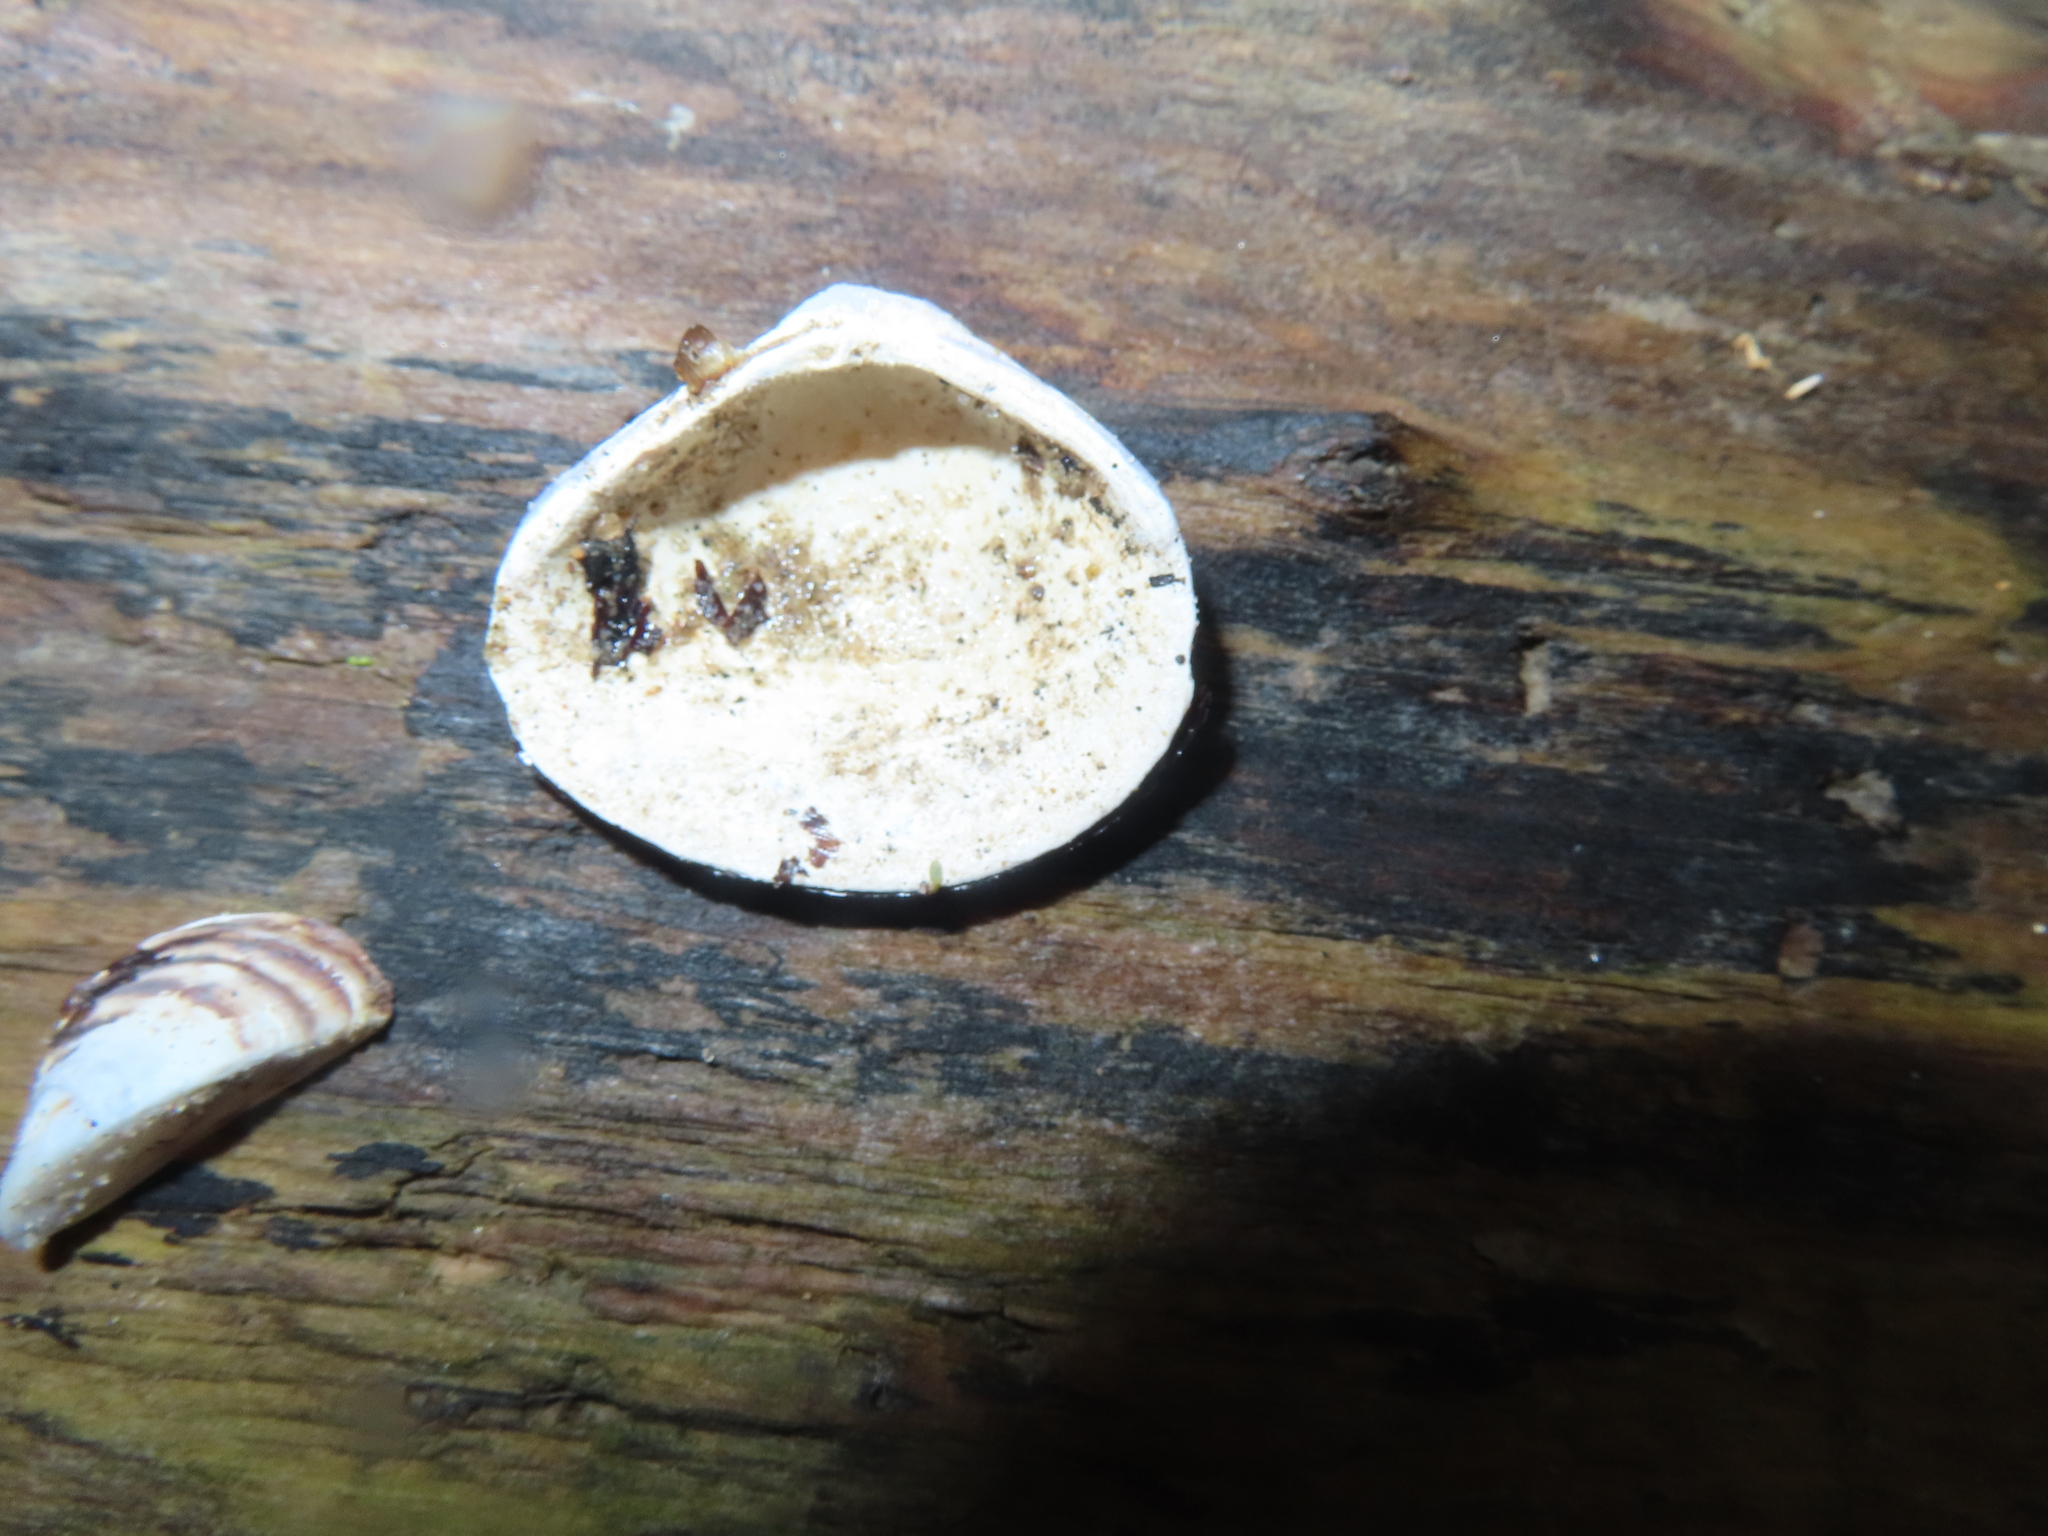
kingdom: Animalia
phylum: Mollusca
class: Bivalvia
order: Venerida
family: Cyrenidae
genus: Corbicula
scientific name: Corbicula fluminea
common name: Asian clam
